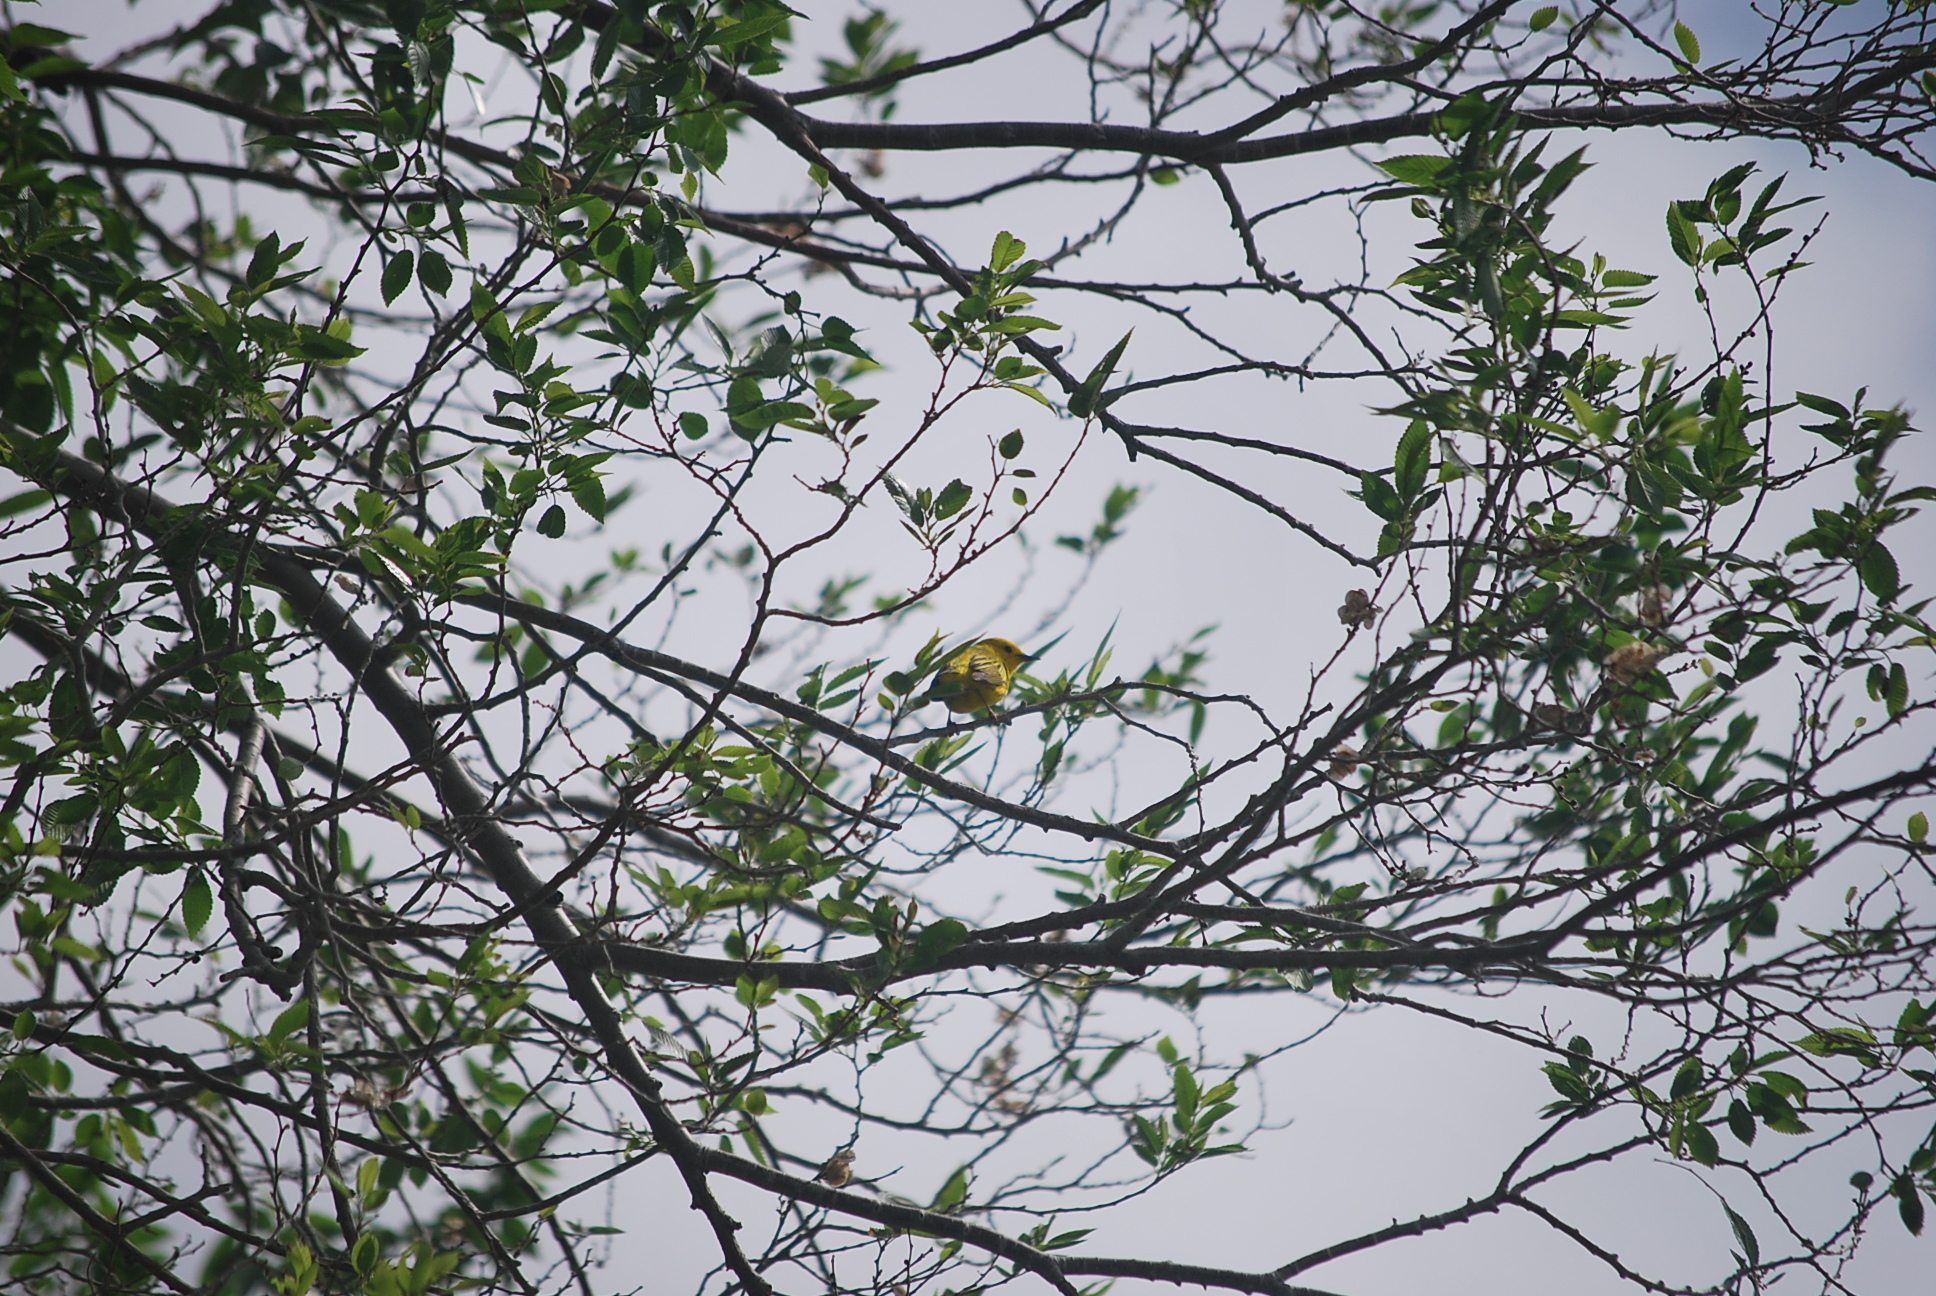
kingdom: Animalia
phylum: Chordata
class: Aves
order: Passeriformes
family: Parulidae
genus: Setophaga
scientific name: Setophaga petechia
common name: Yellow warbler
